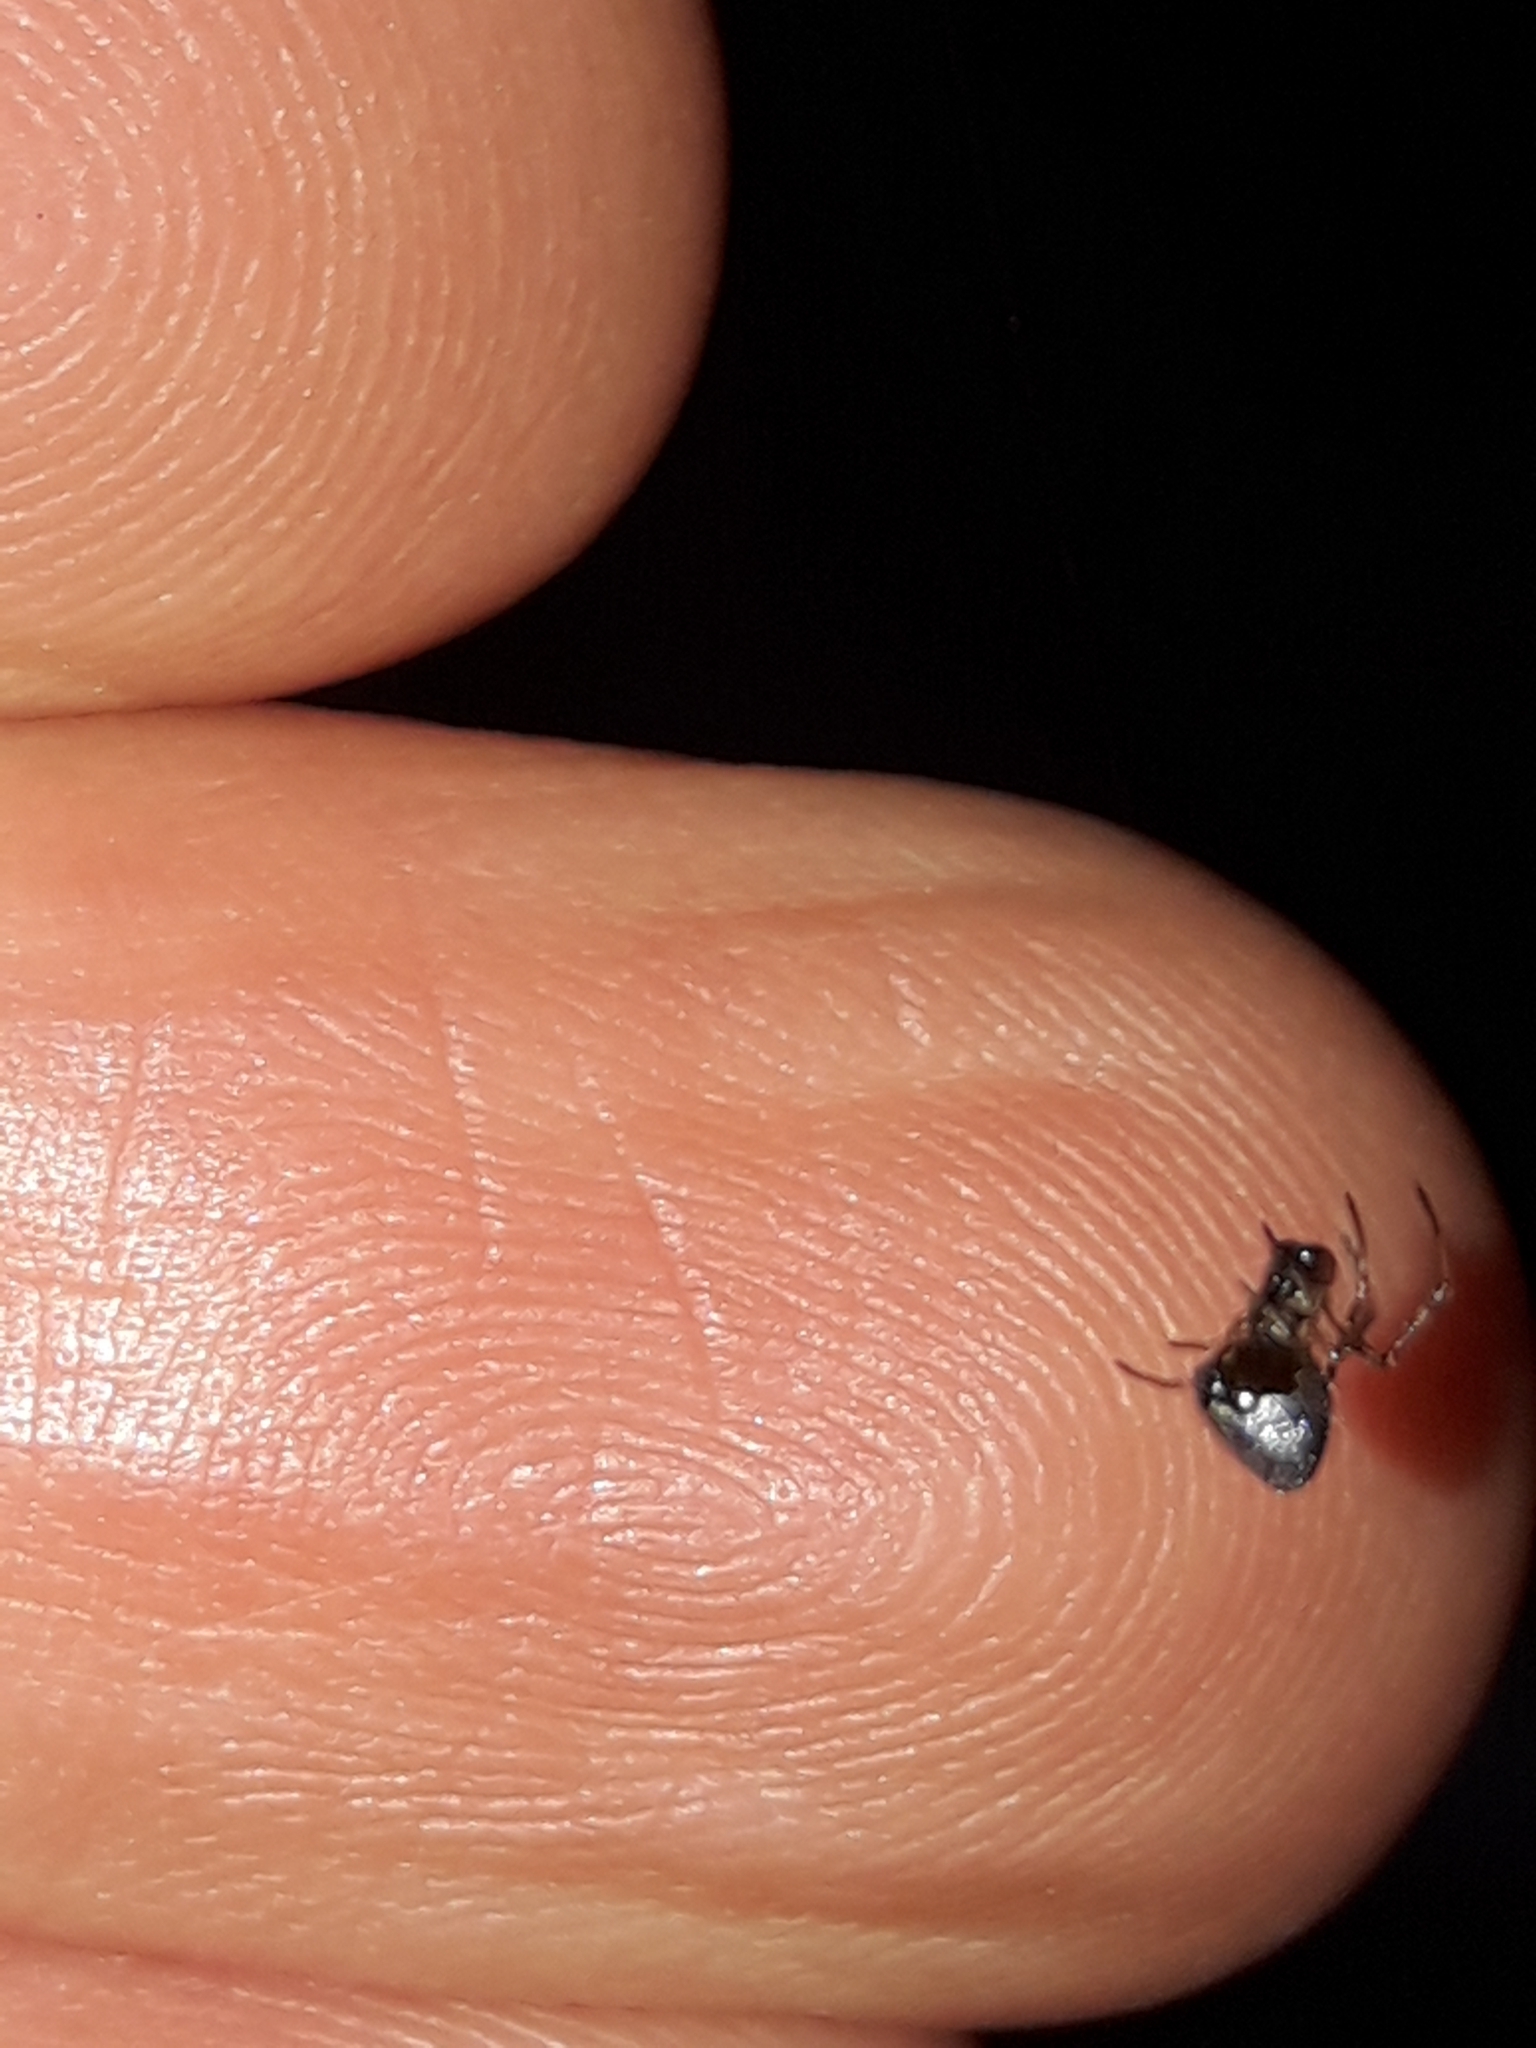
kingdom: Animalia
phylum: Arthropoda
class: Arachnida
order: Araneae
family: Theridiidae
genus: Argyrodes
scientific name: Argyrodes antipodianus
